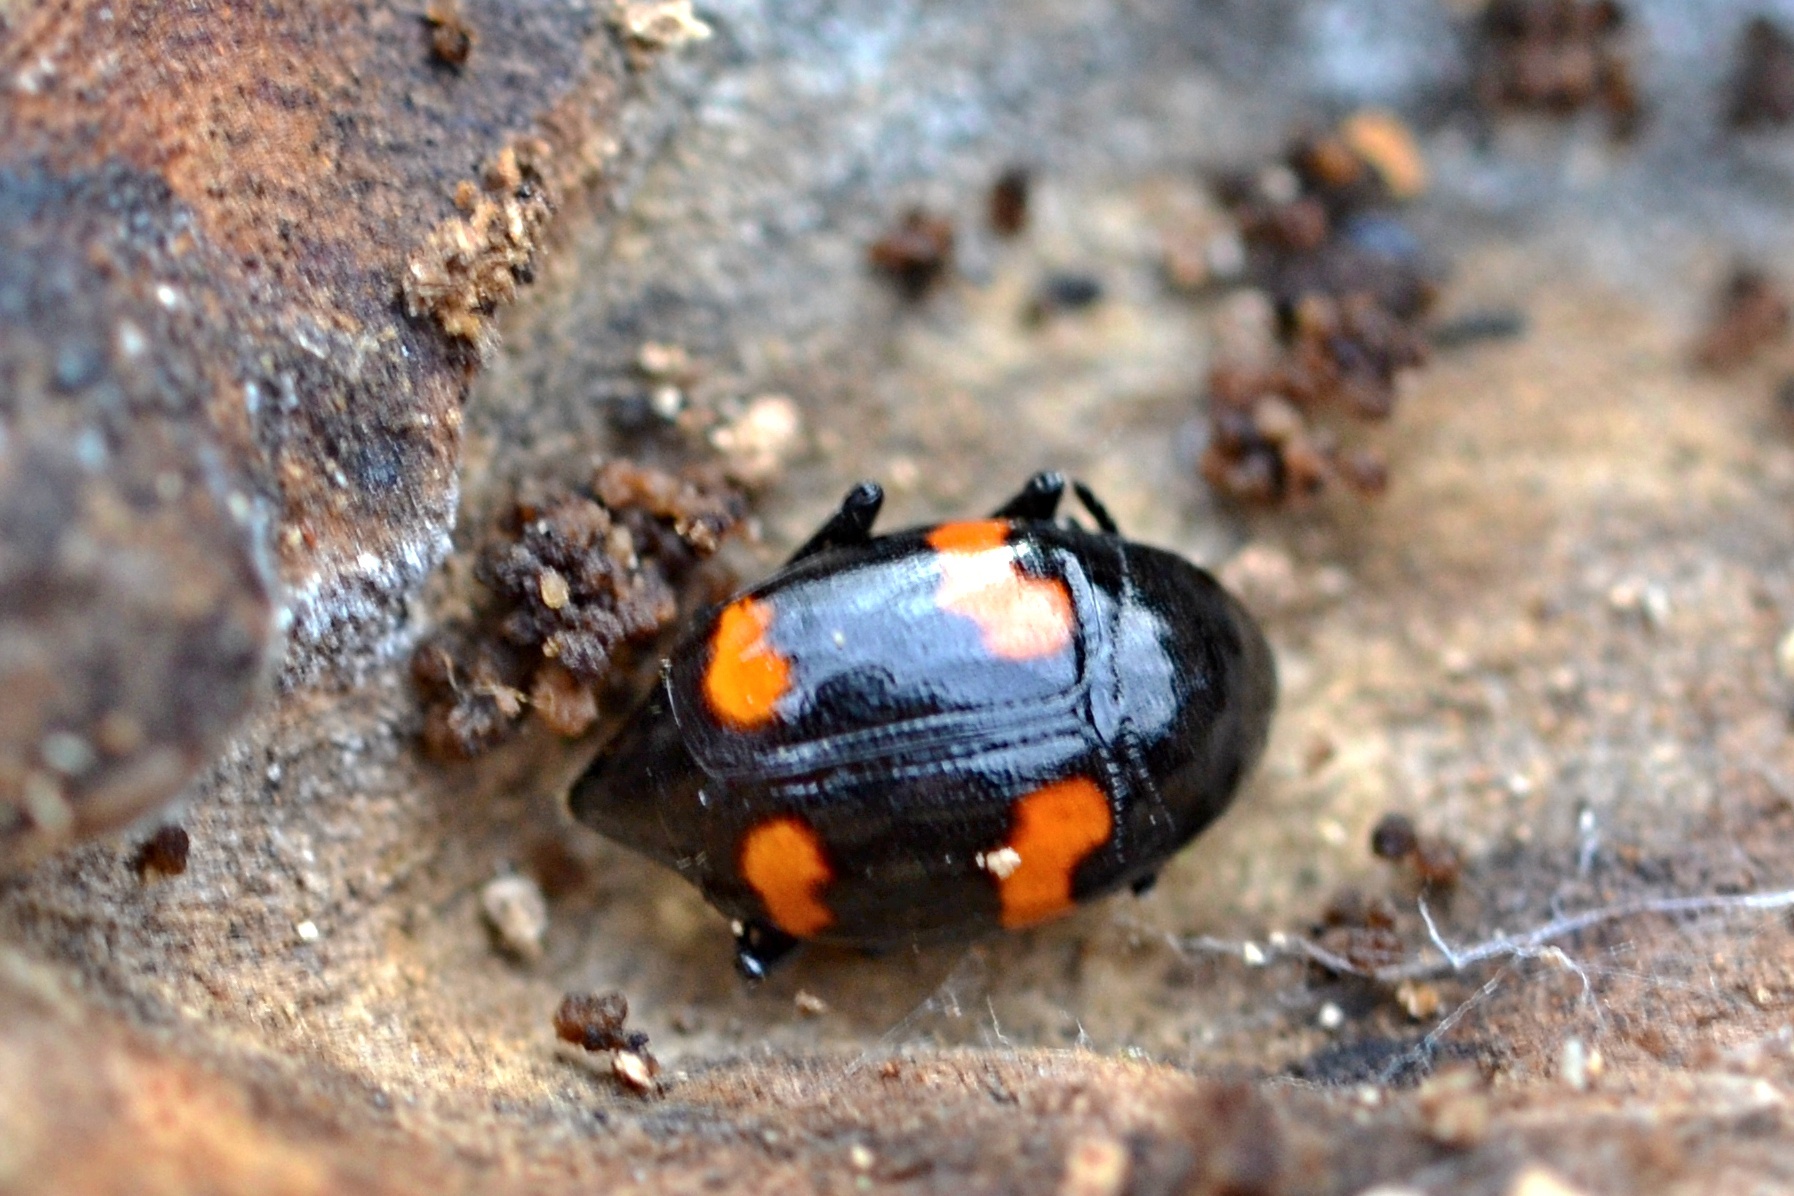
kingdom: Animalia
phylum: Arthropoda
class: Insecta
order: Coleoptera
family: Staphylinidae
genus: Scaphidium
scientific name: Scaphidium quadrimaculatum
